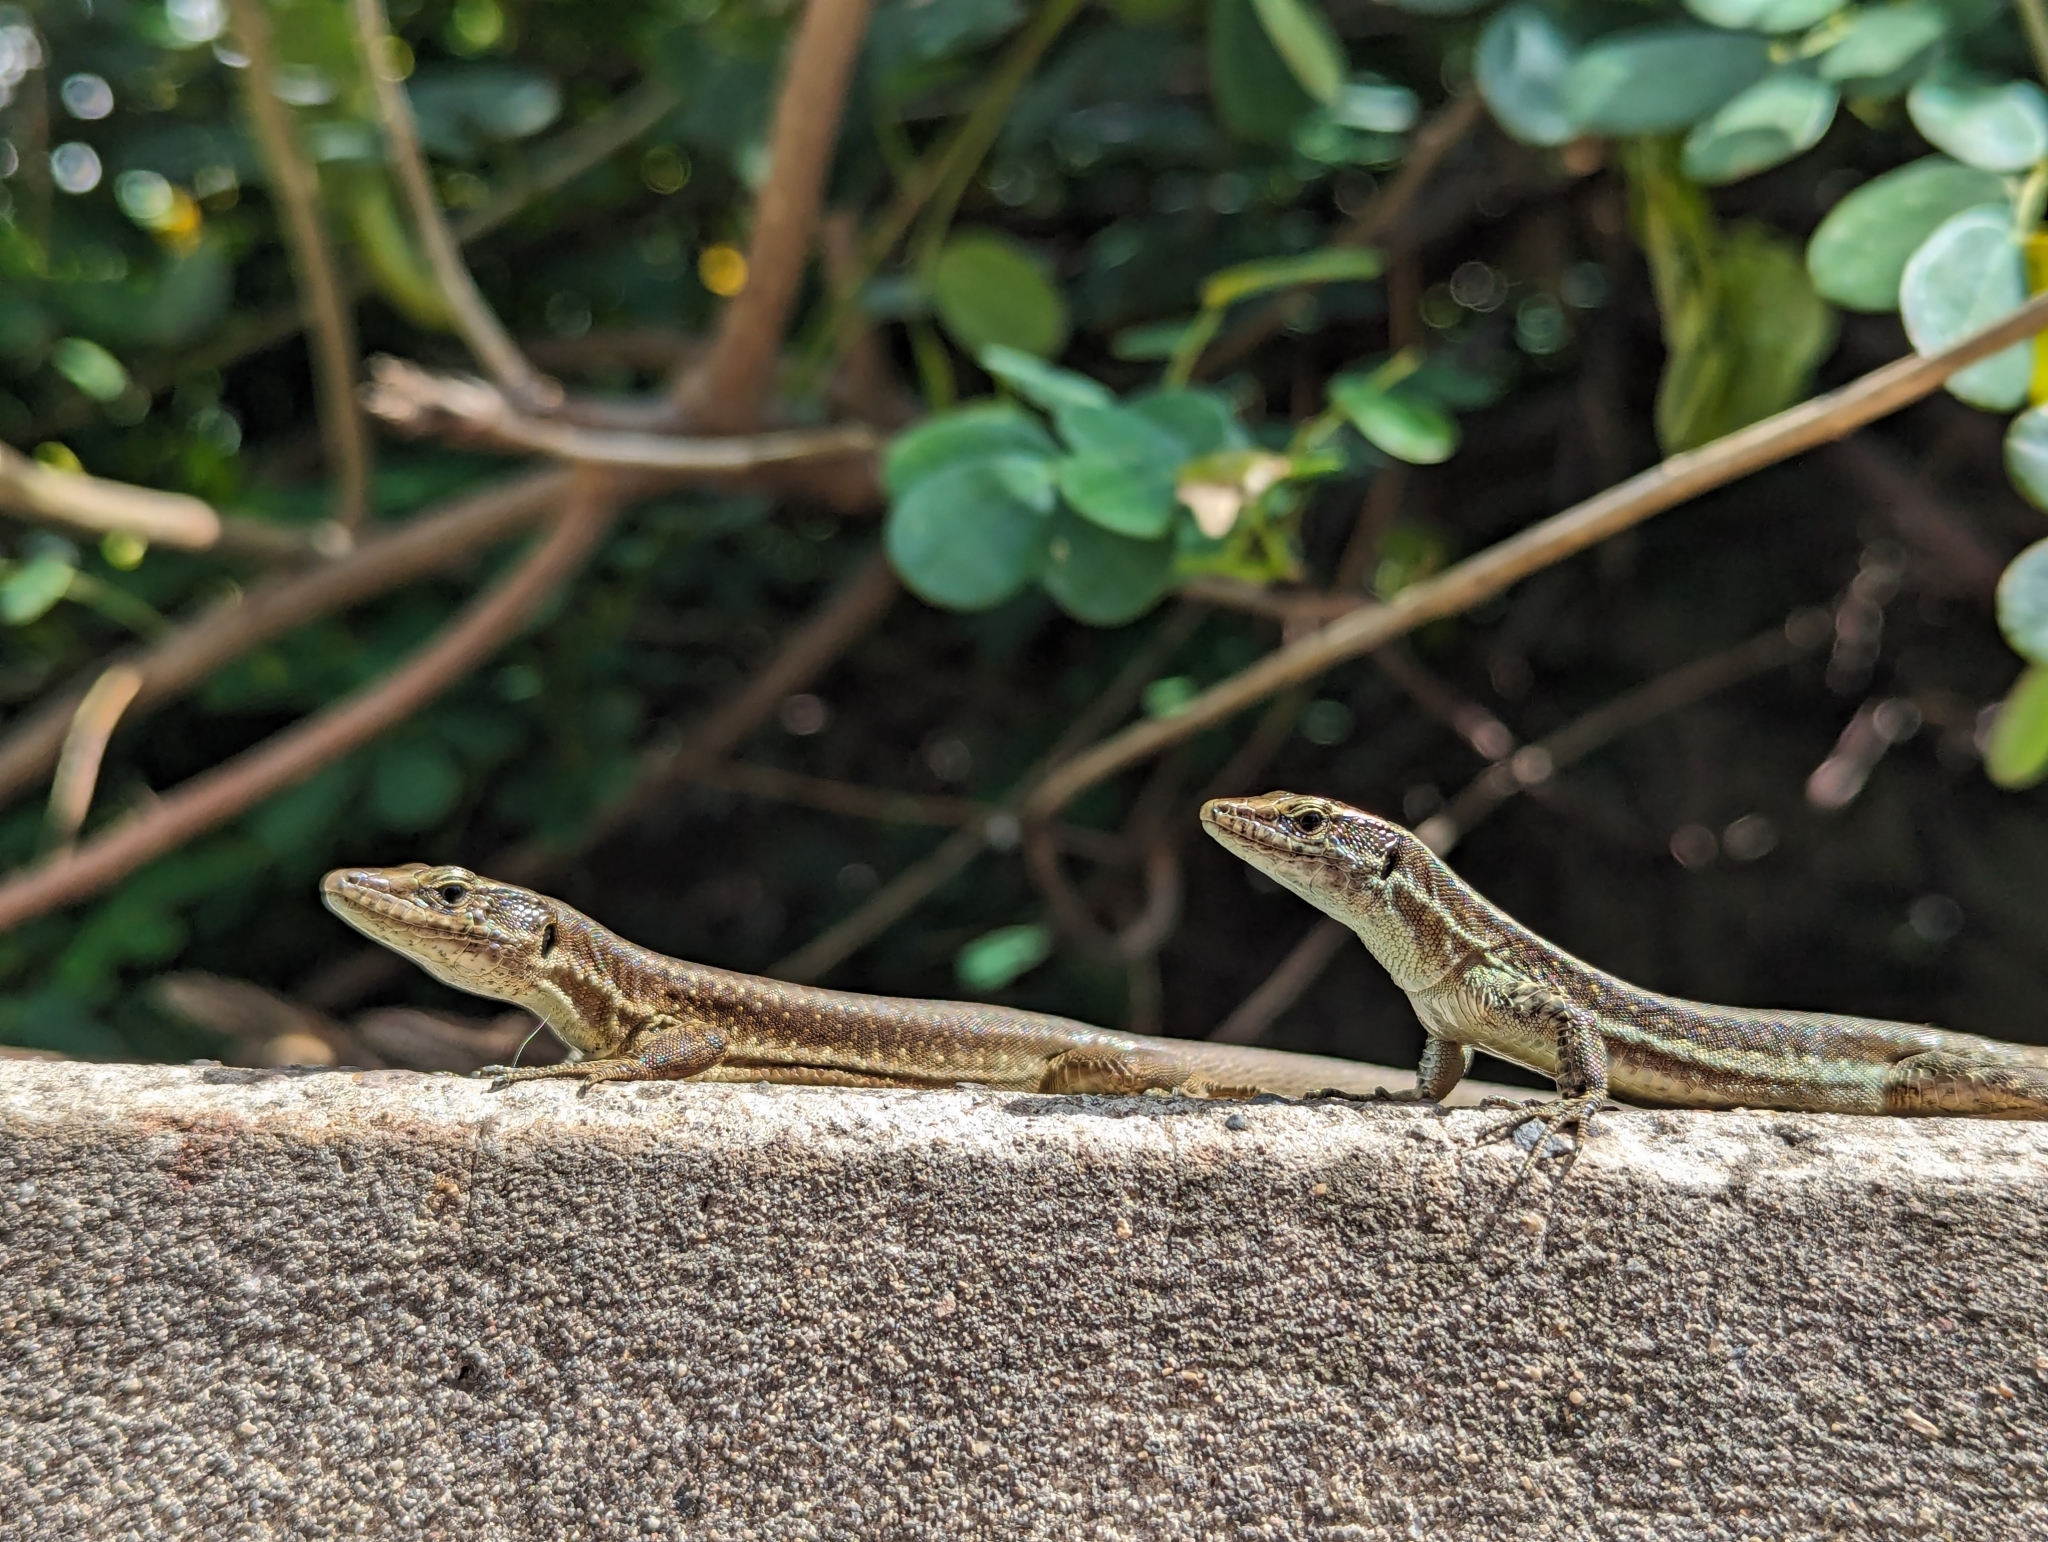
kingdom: Animalia
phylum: Chordata
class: Squamata
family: Lacertidae
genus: Teira
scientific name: Teira dugesii
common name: Madeira lizard
